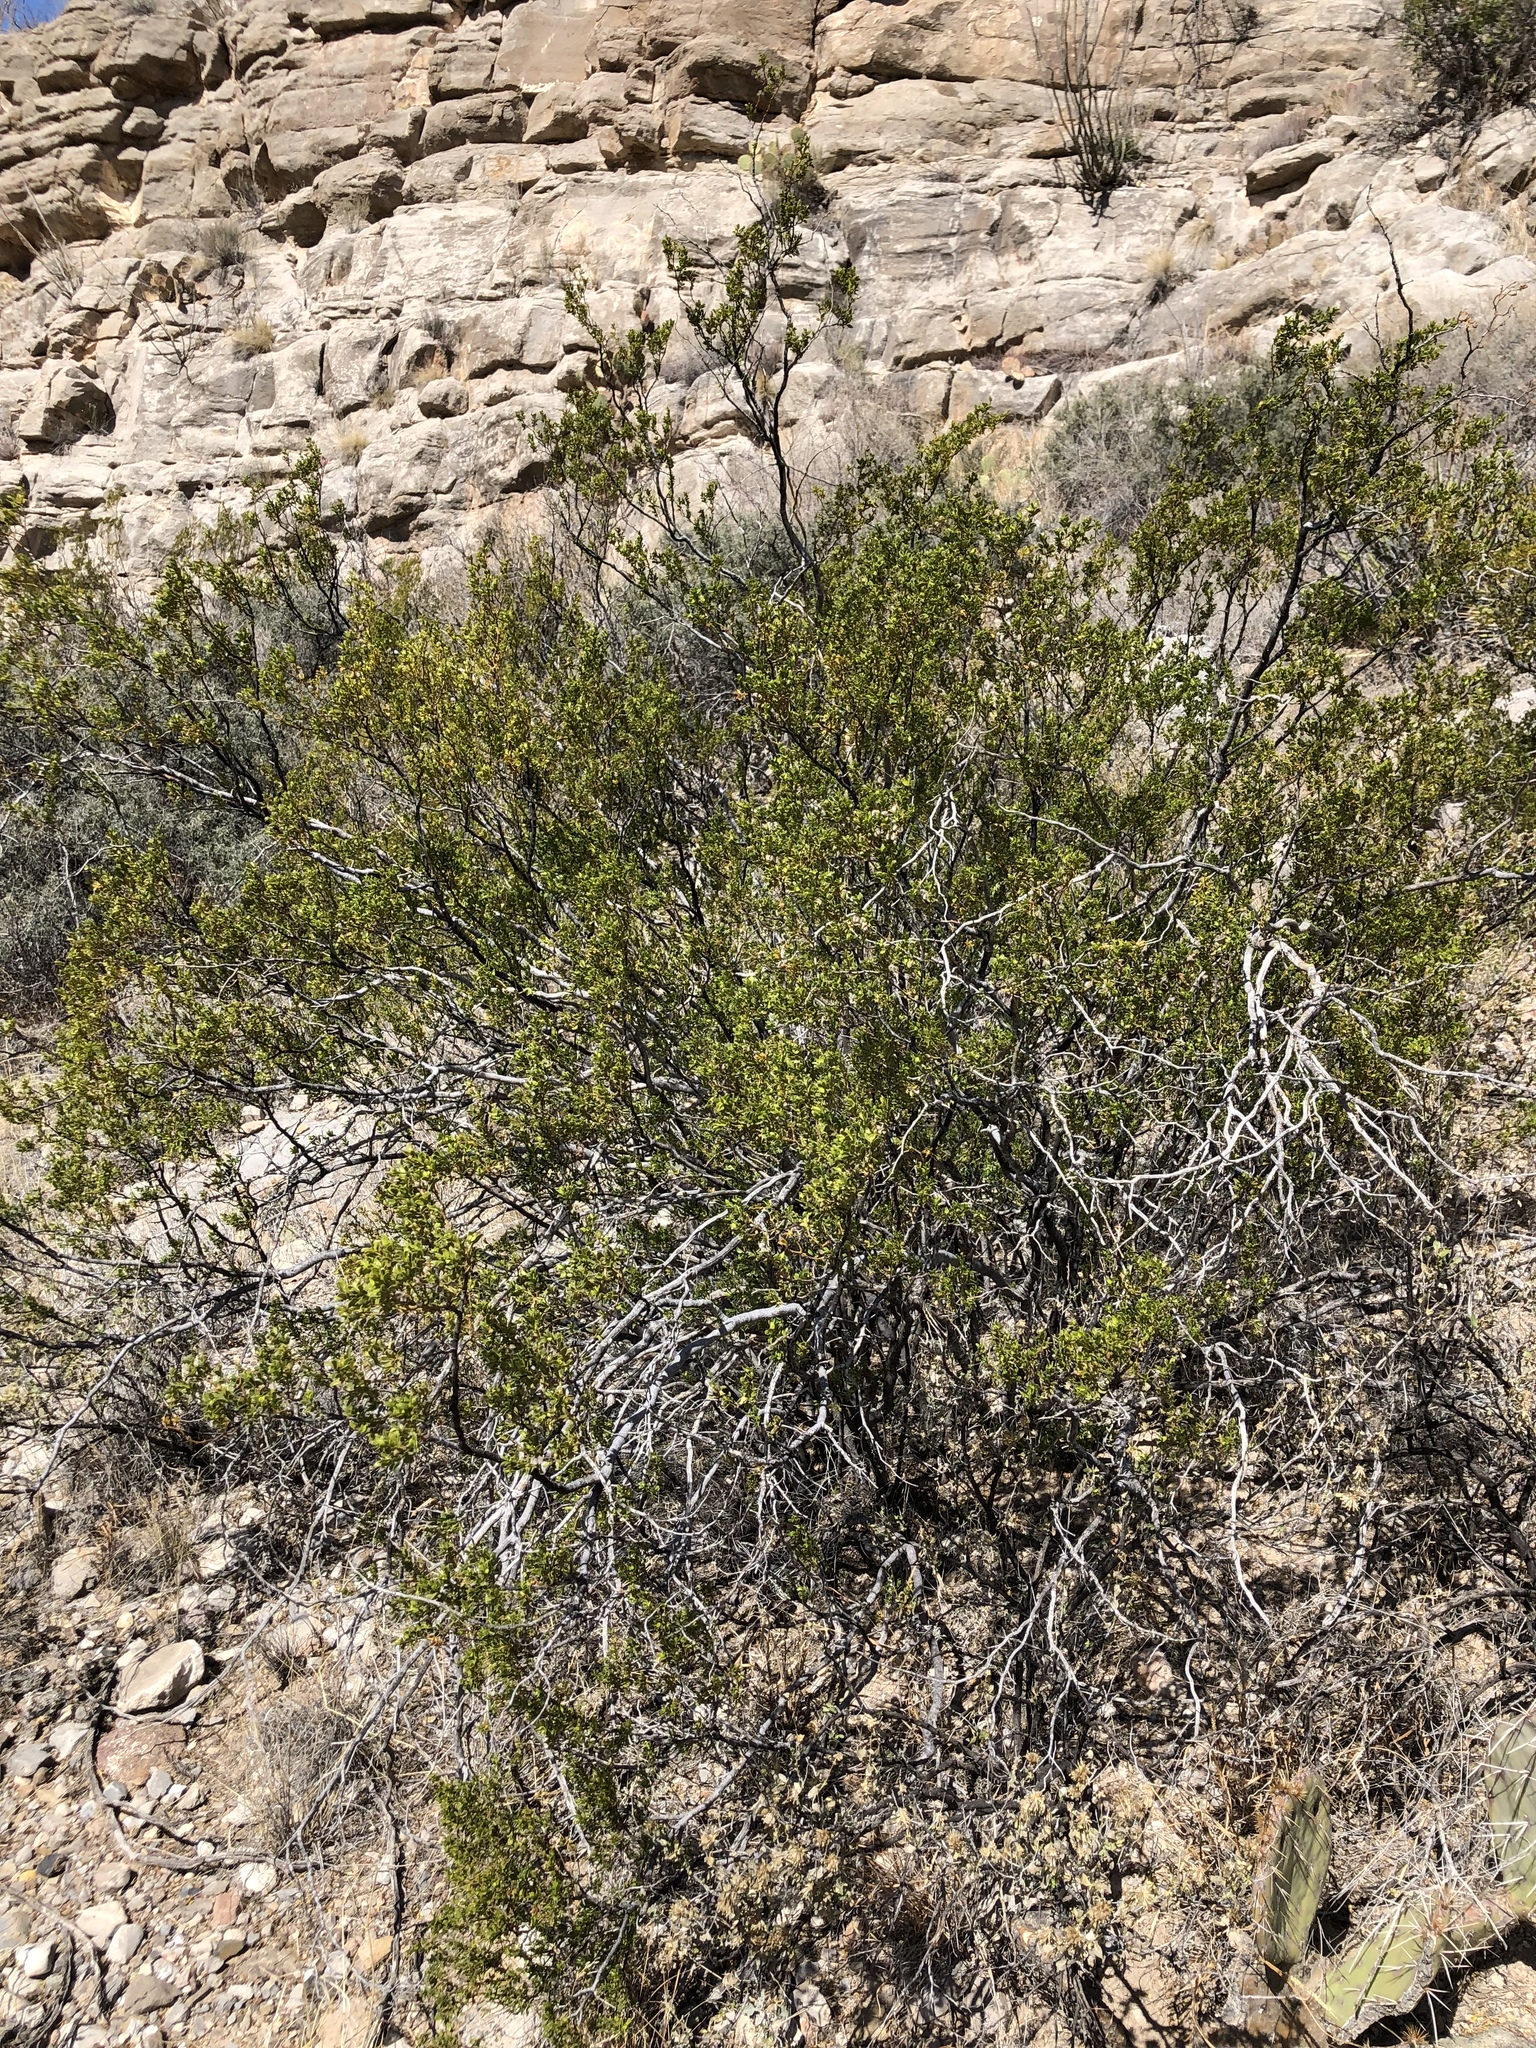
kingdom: Plantae
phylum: Tracheophyta
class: Magnoliopsida
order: Zygophyllales
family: Zygophyllaceae
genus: Larrea
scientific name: Larrea tridentata
